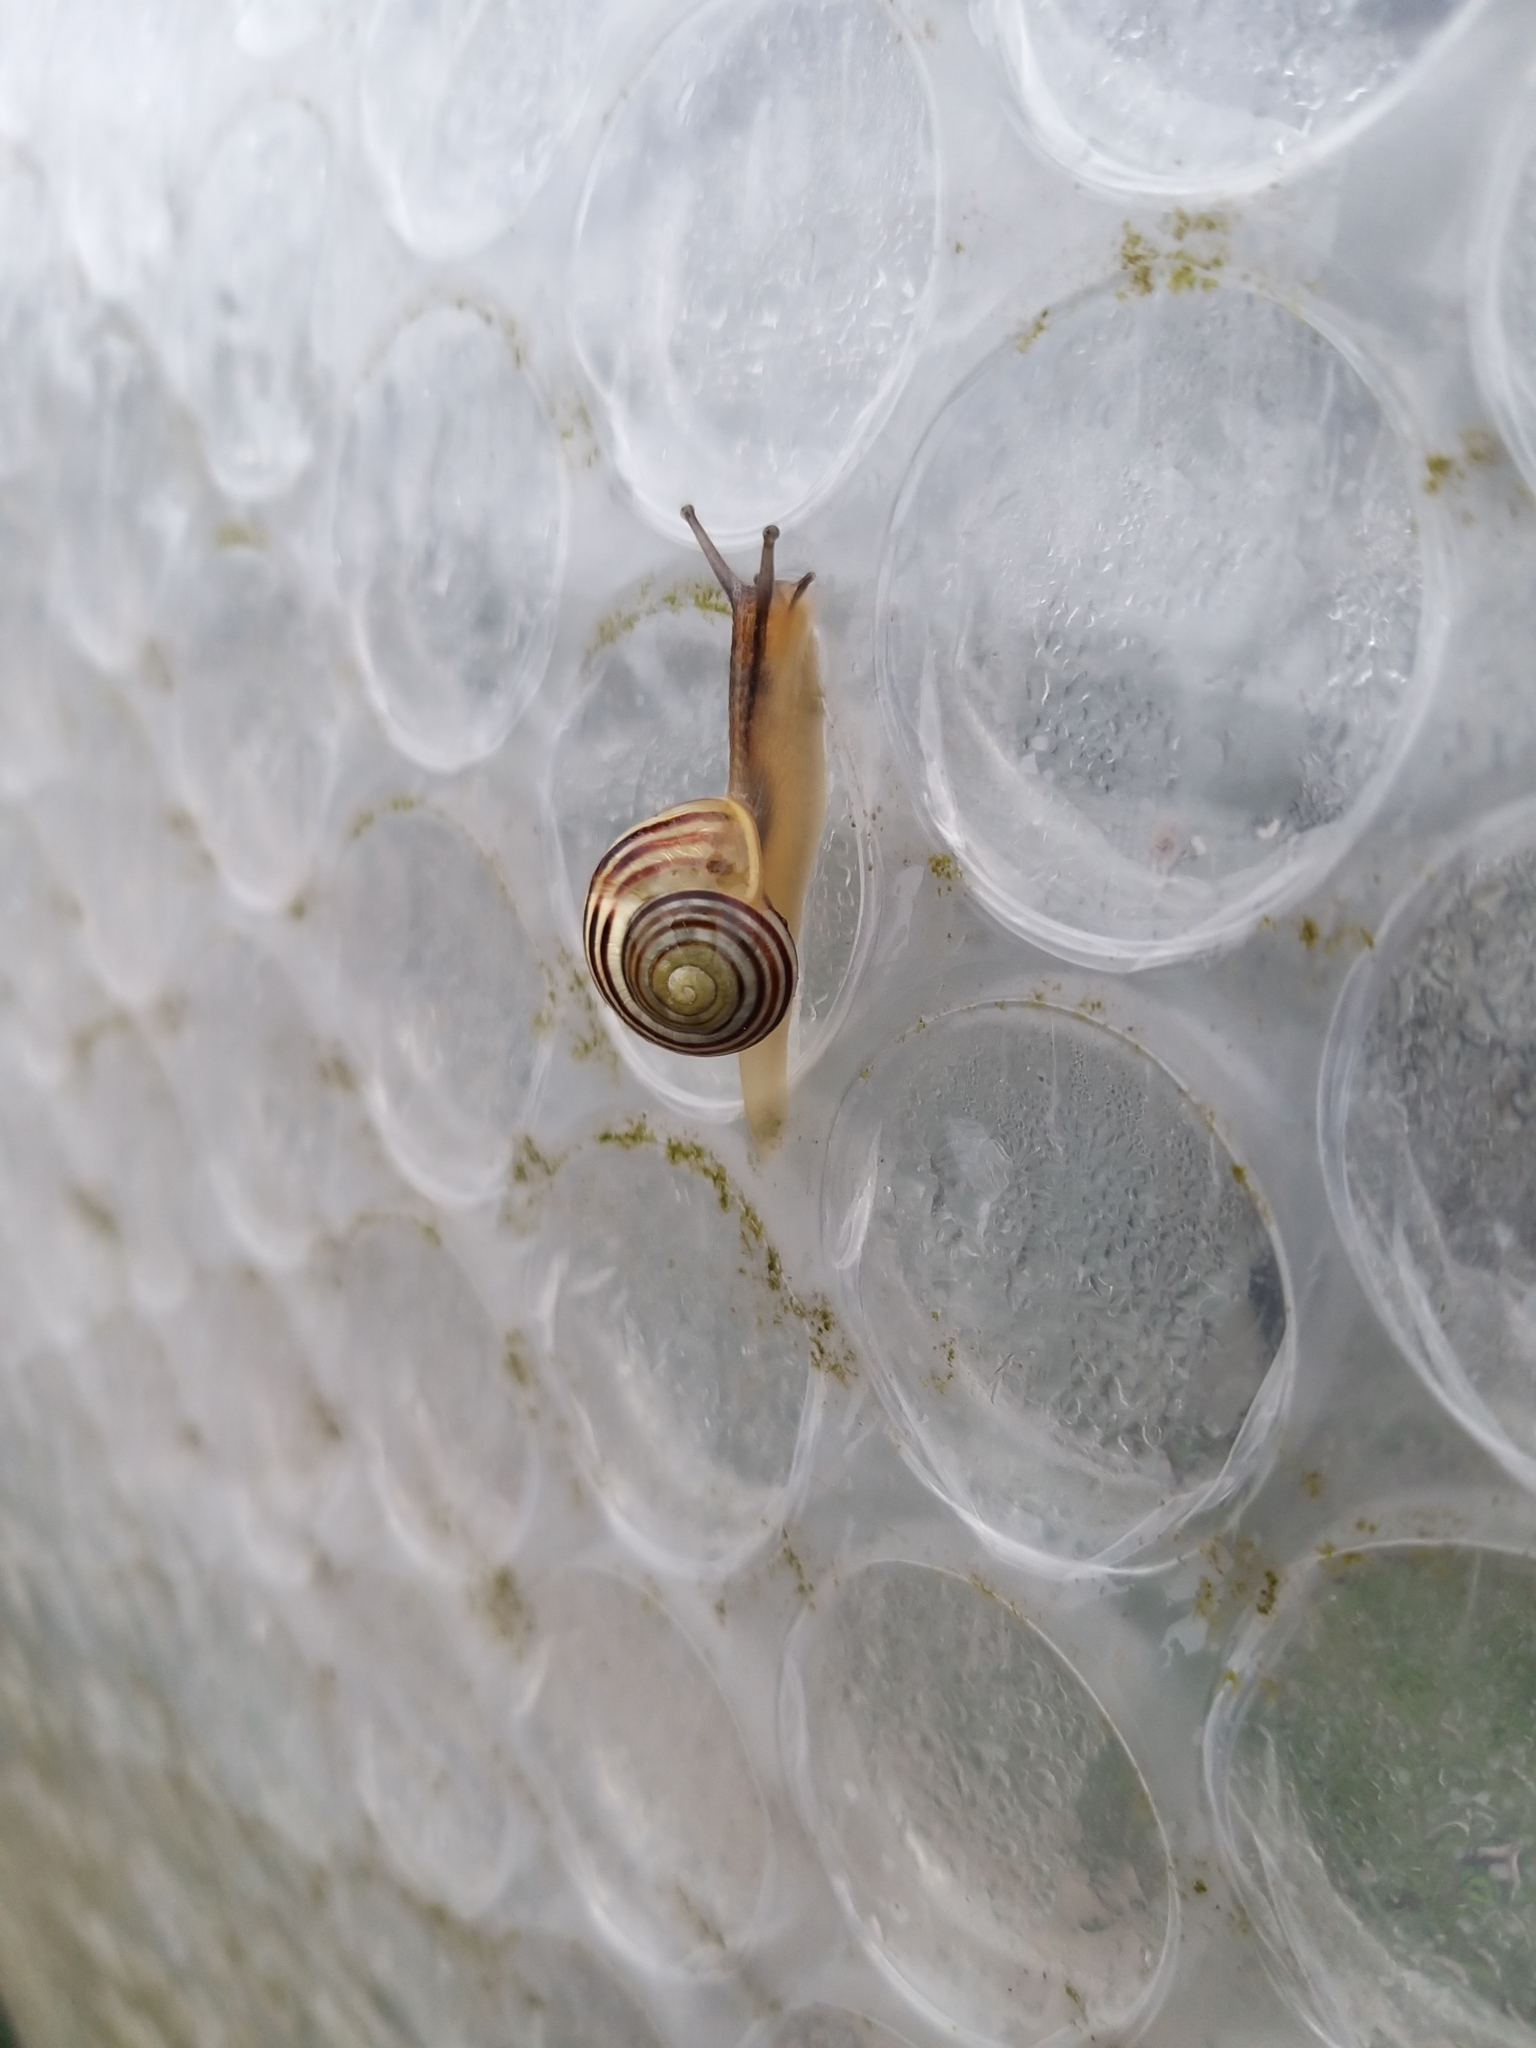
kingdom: Animalia
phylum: Mollusca
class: Gastropoda
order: Stylommatophora
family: Helicidae
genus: Cepaea
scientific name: Cepaea hortensis
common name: White-lip gardensnail
